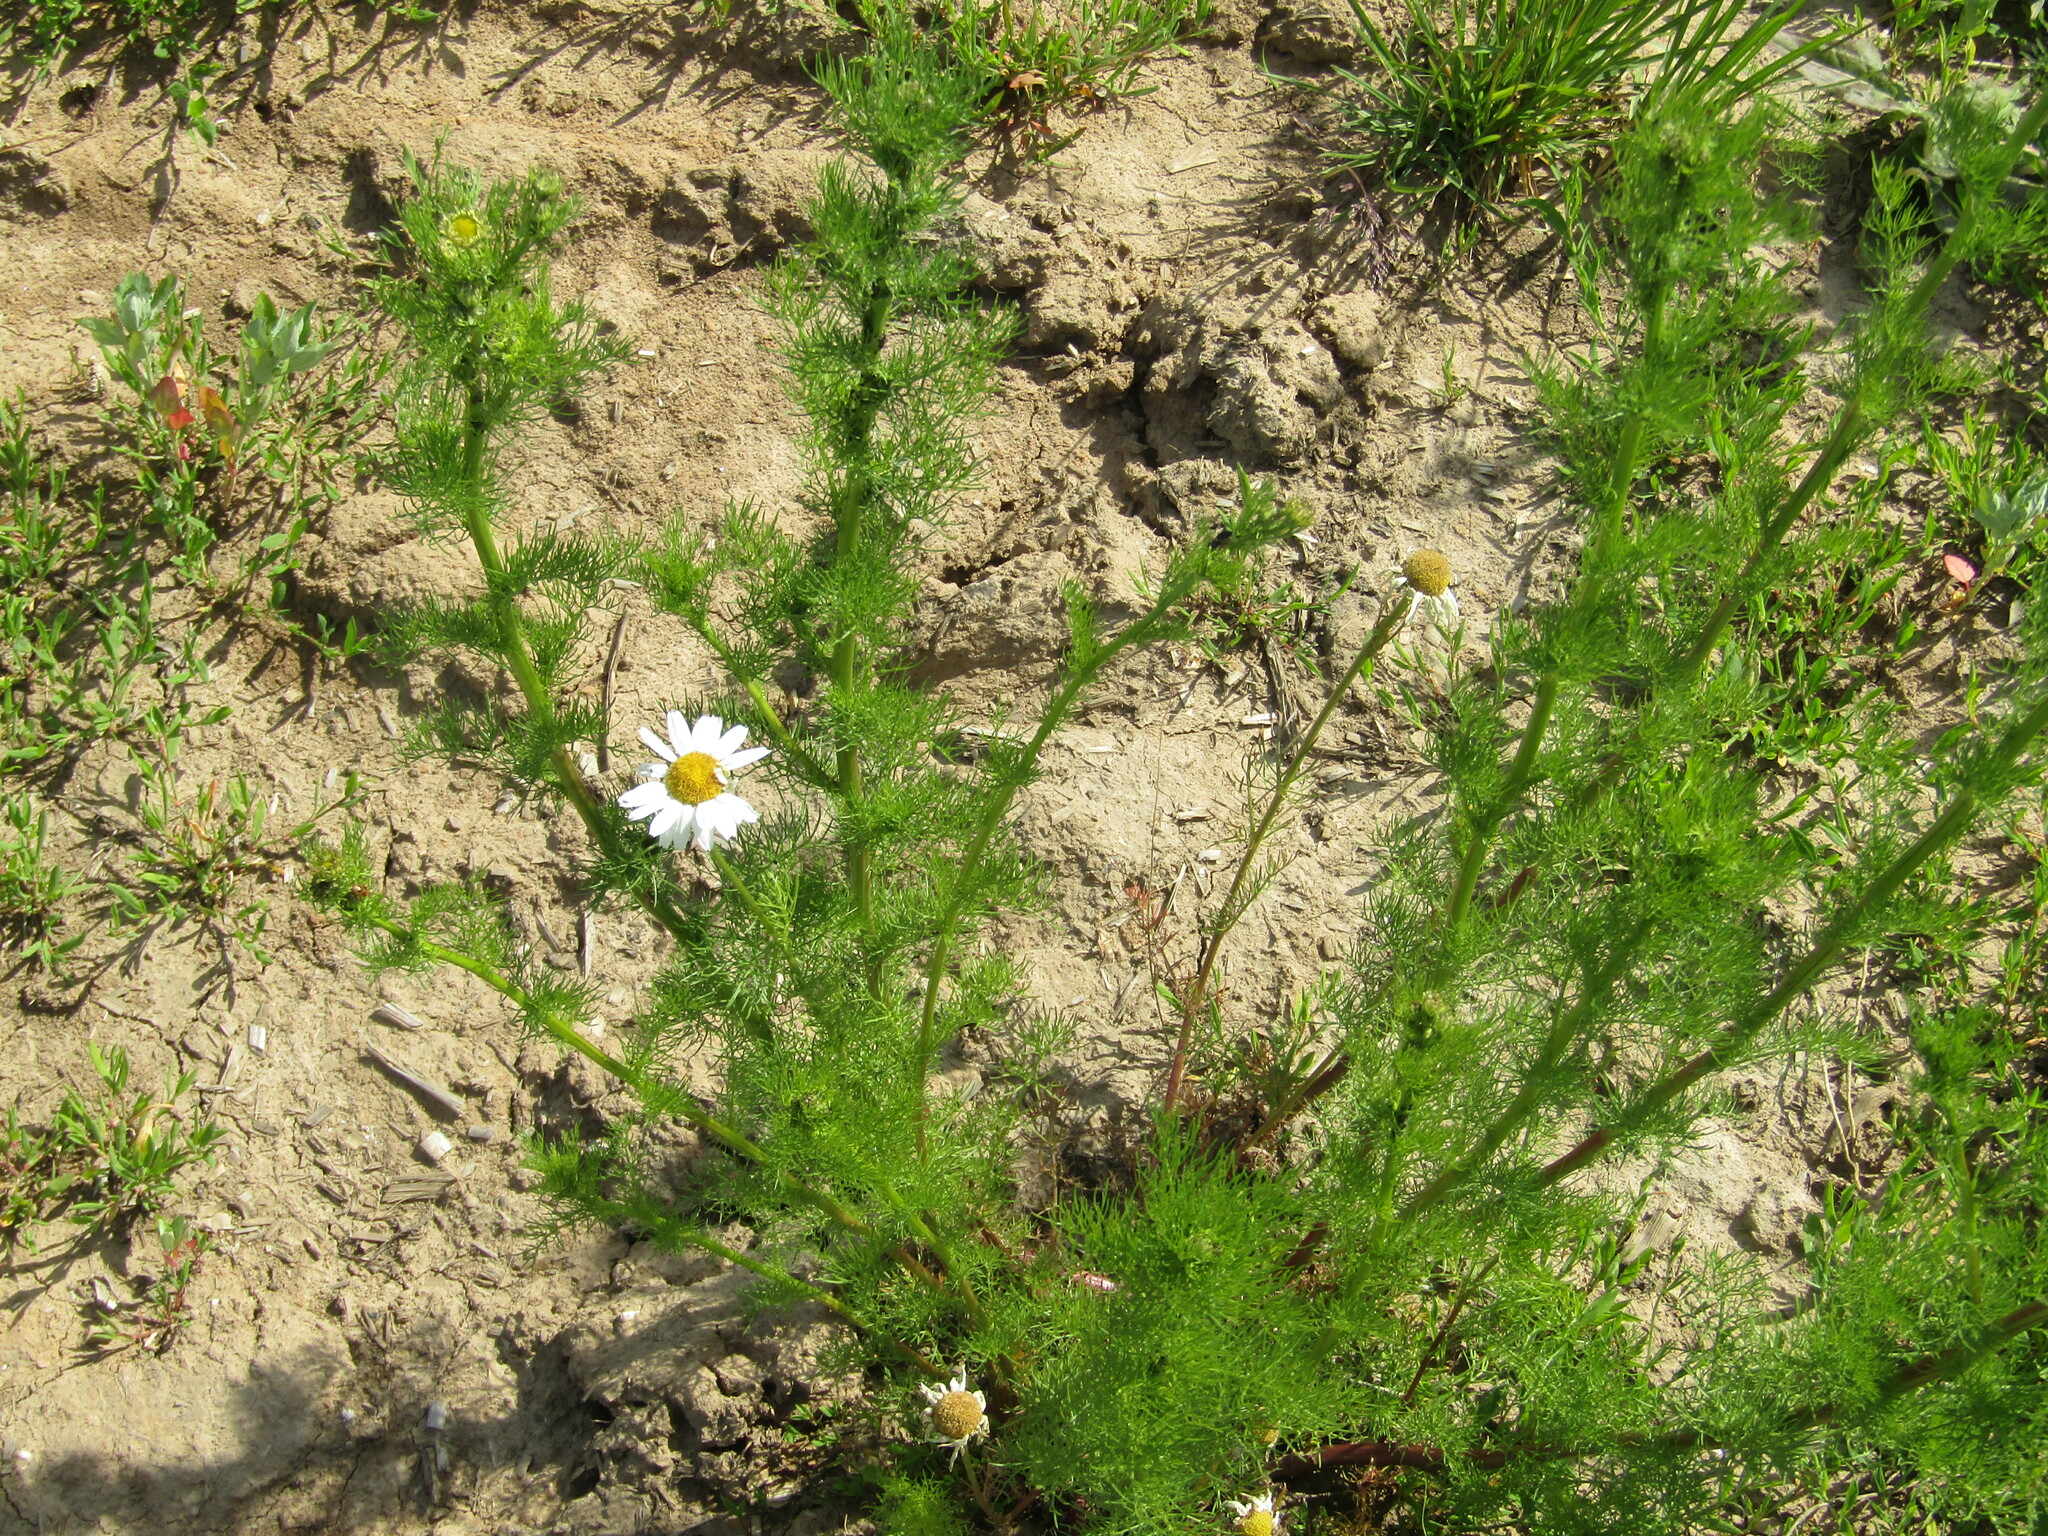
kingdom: Plantae
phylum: Tracheophyta
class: Magnoliopsida
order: Asterales
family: Asteraceae
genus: Tripleurospermum
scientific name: Tripleurospermum inodorum
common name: Scentless mayweed
